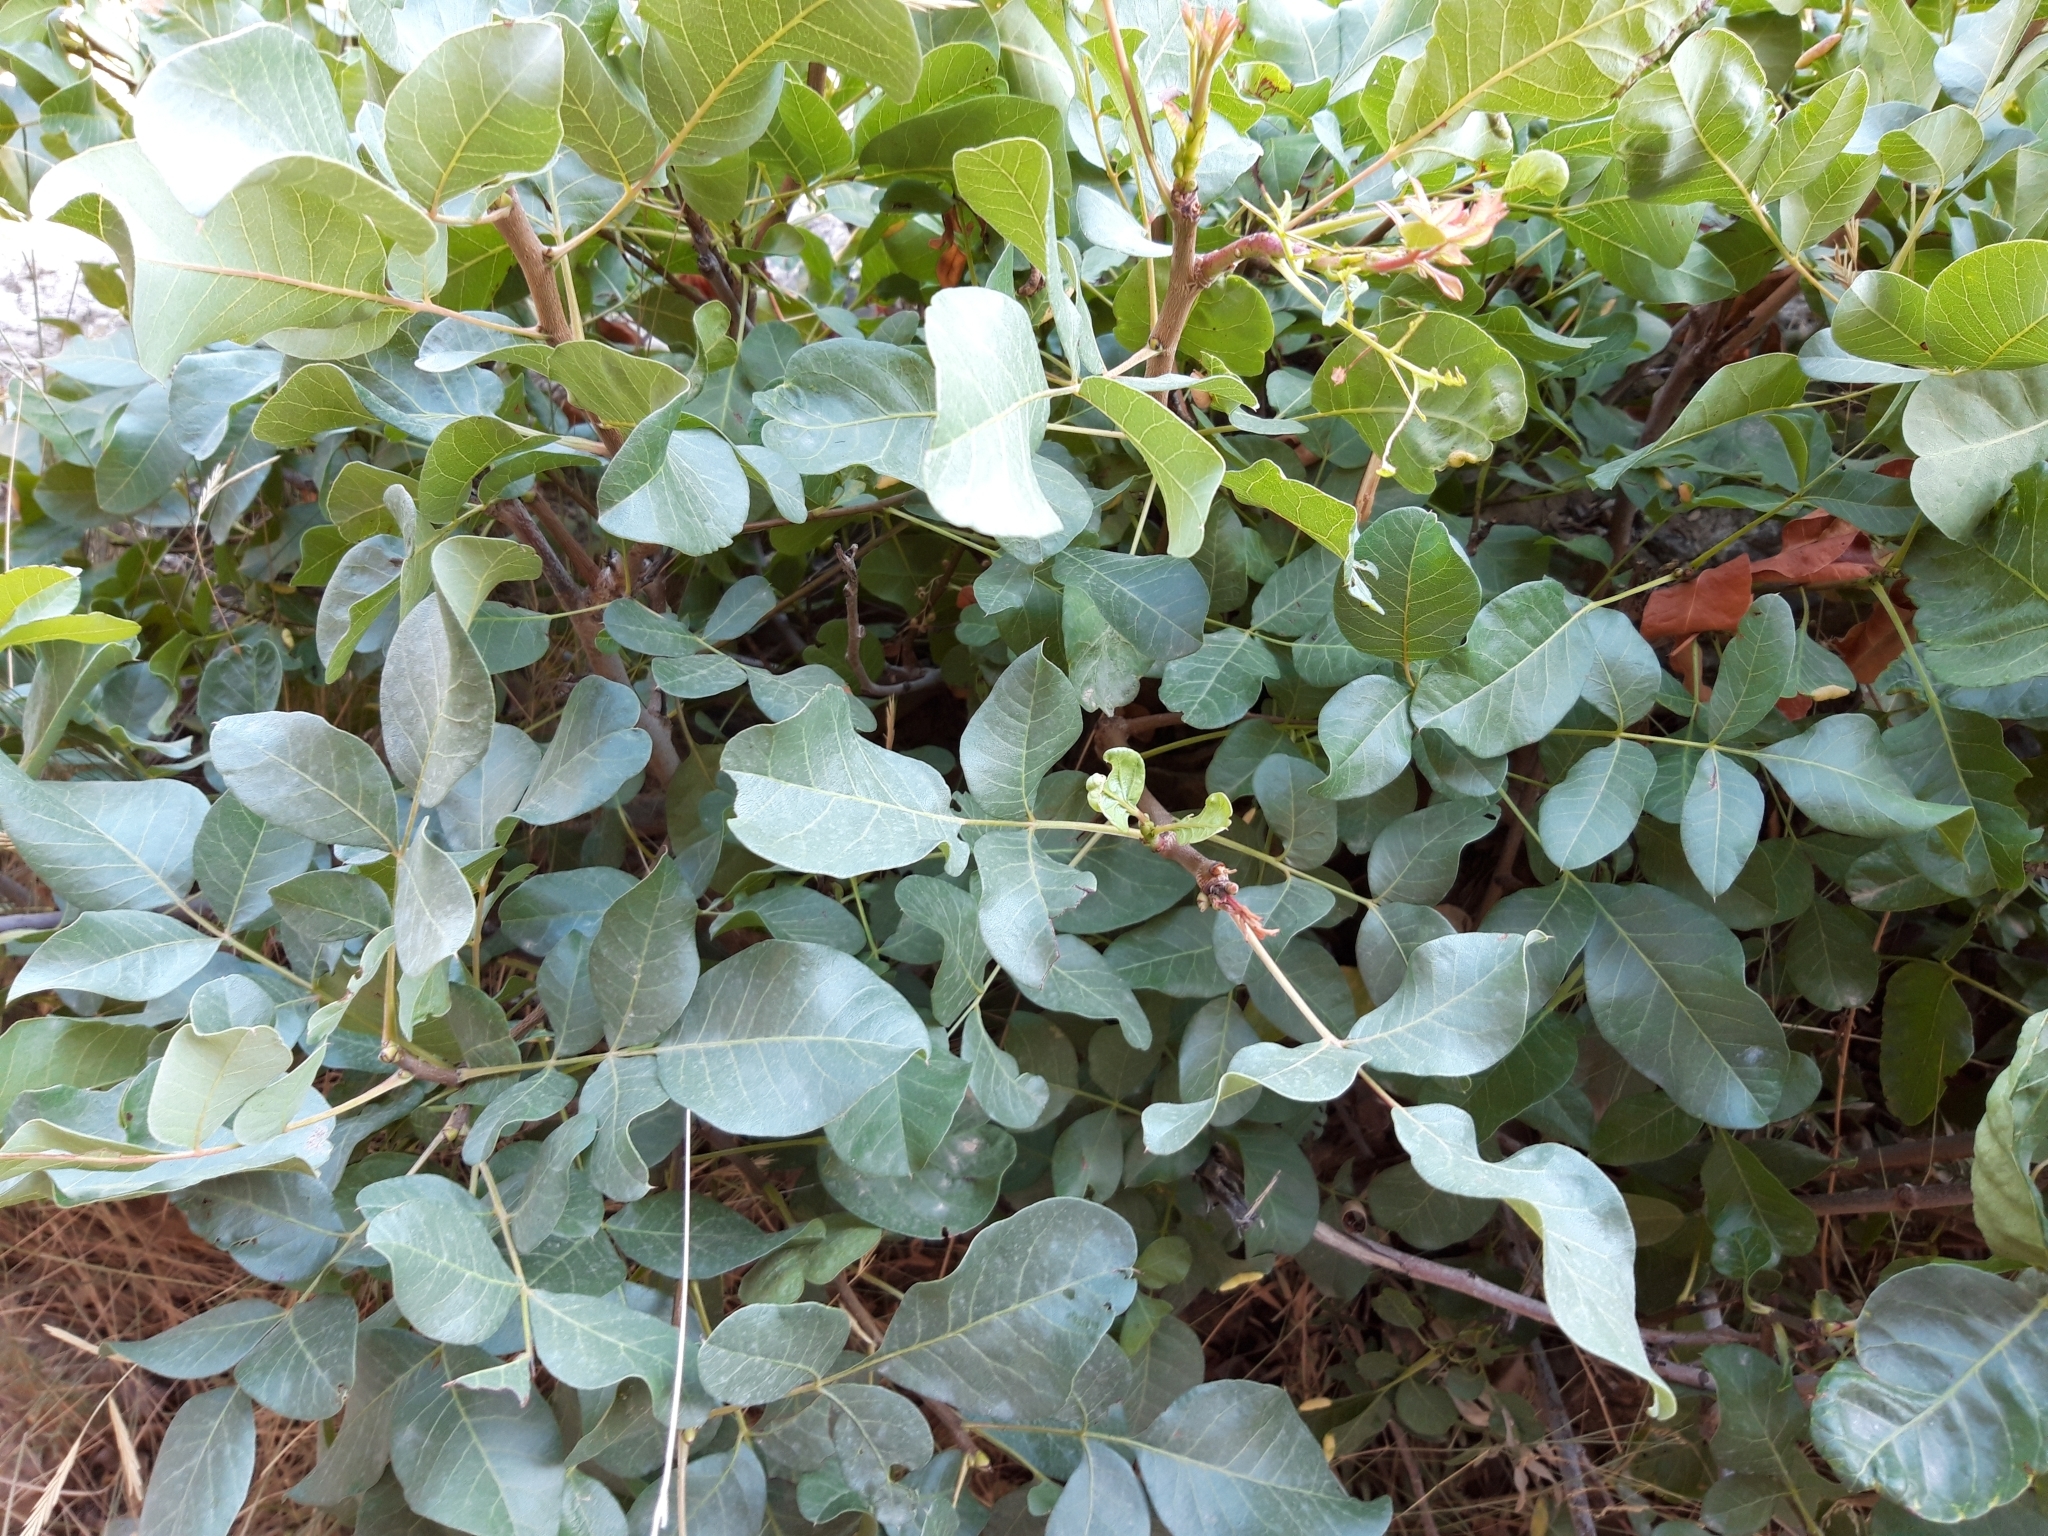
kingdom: Plantae
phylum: Tracheophyta
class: Magnoliopsida
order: Sapindales
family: Anacardiaceae
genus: Pistacia
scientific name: Pistacia terebinthus
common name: Terebinth
